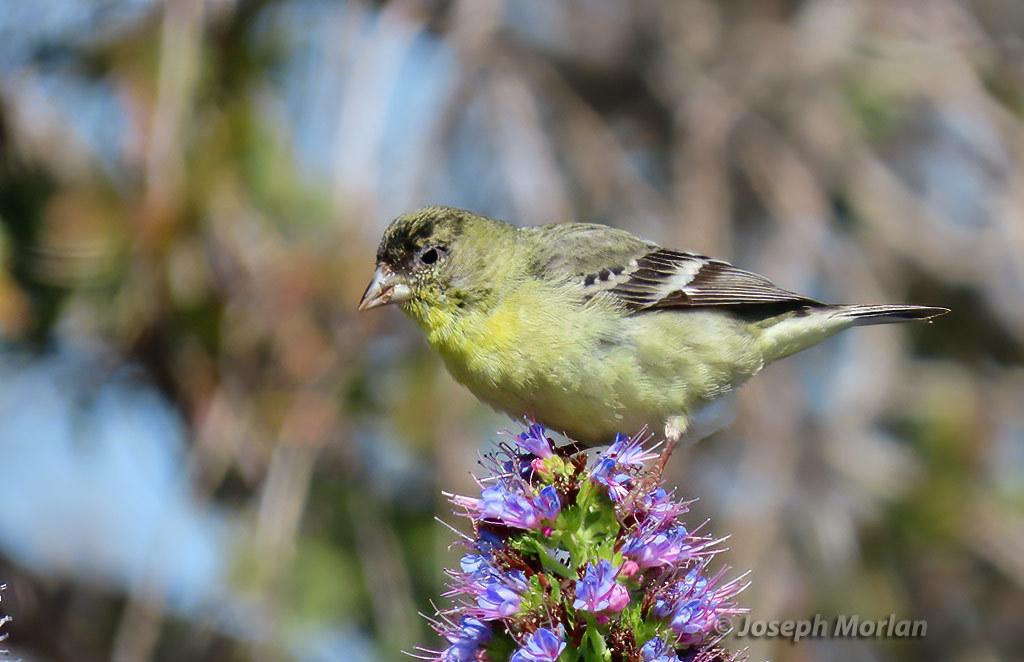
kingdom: Animalia
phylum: Chordata
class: Aves
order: Passeriformes
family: Fringillidae
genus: Spinus
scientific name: Spinus psaltria
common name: Lesser goldfinch
